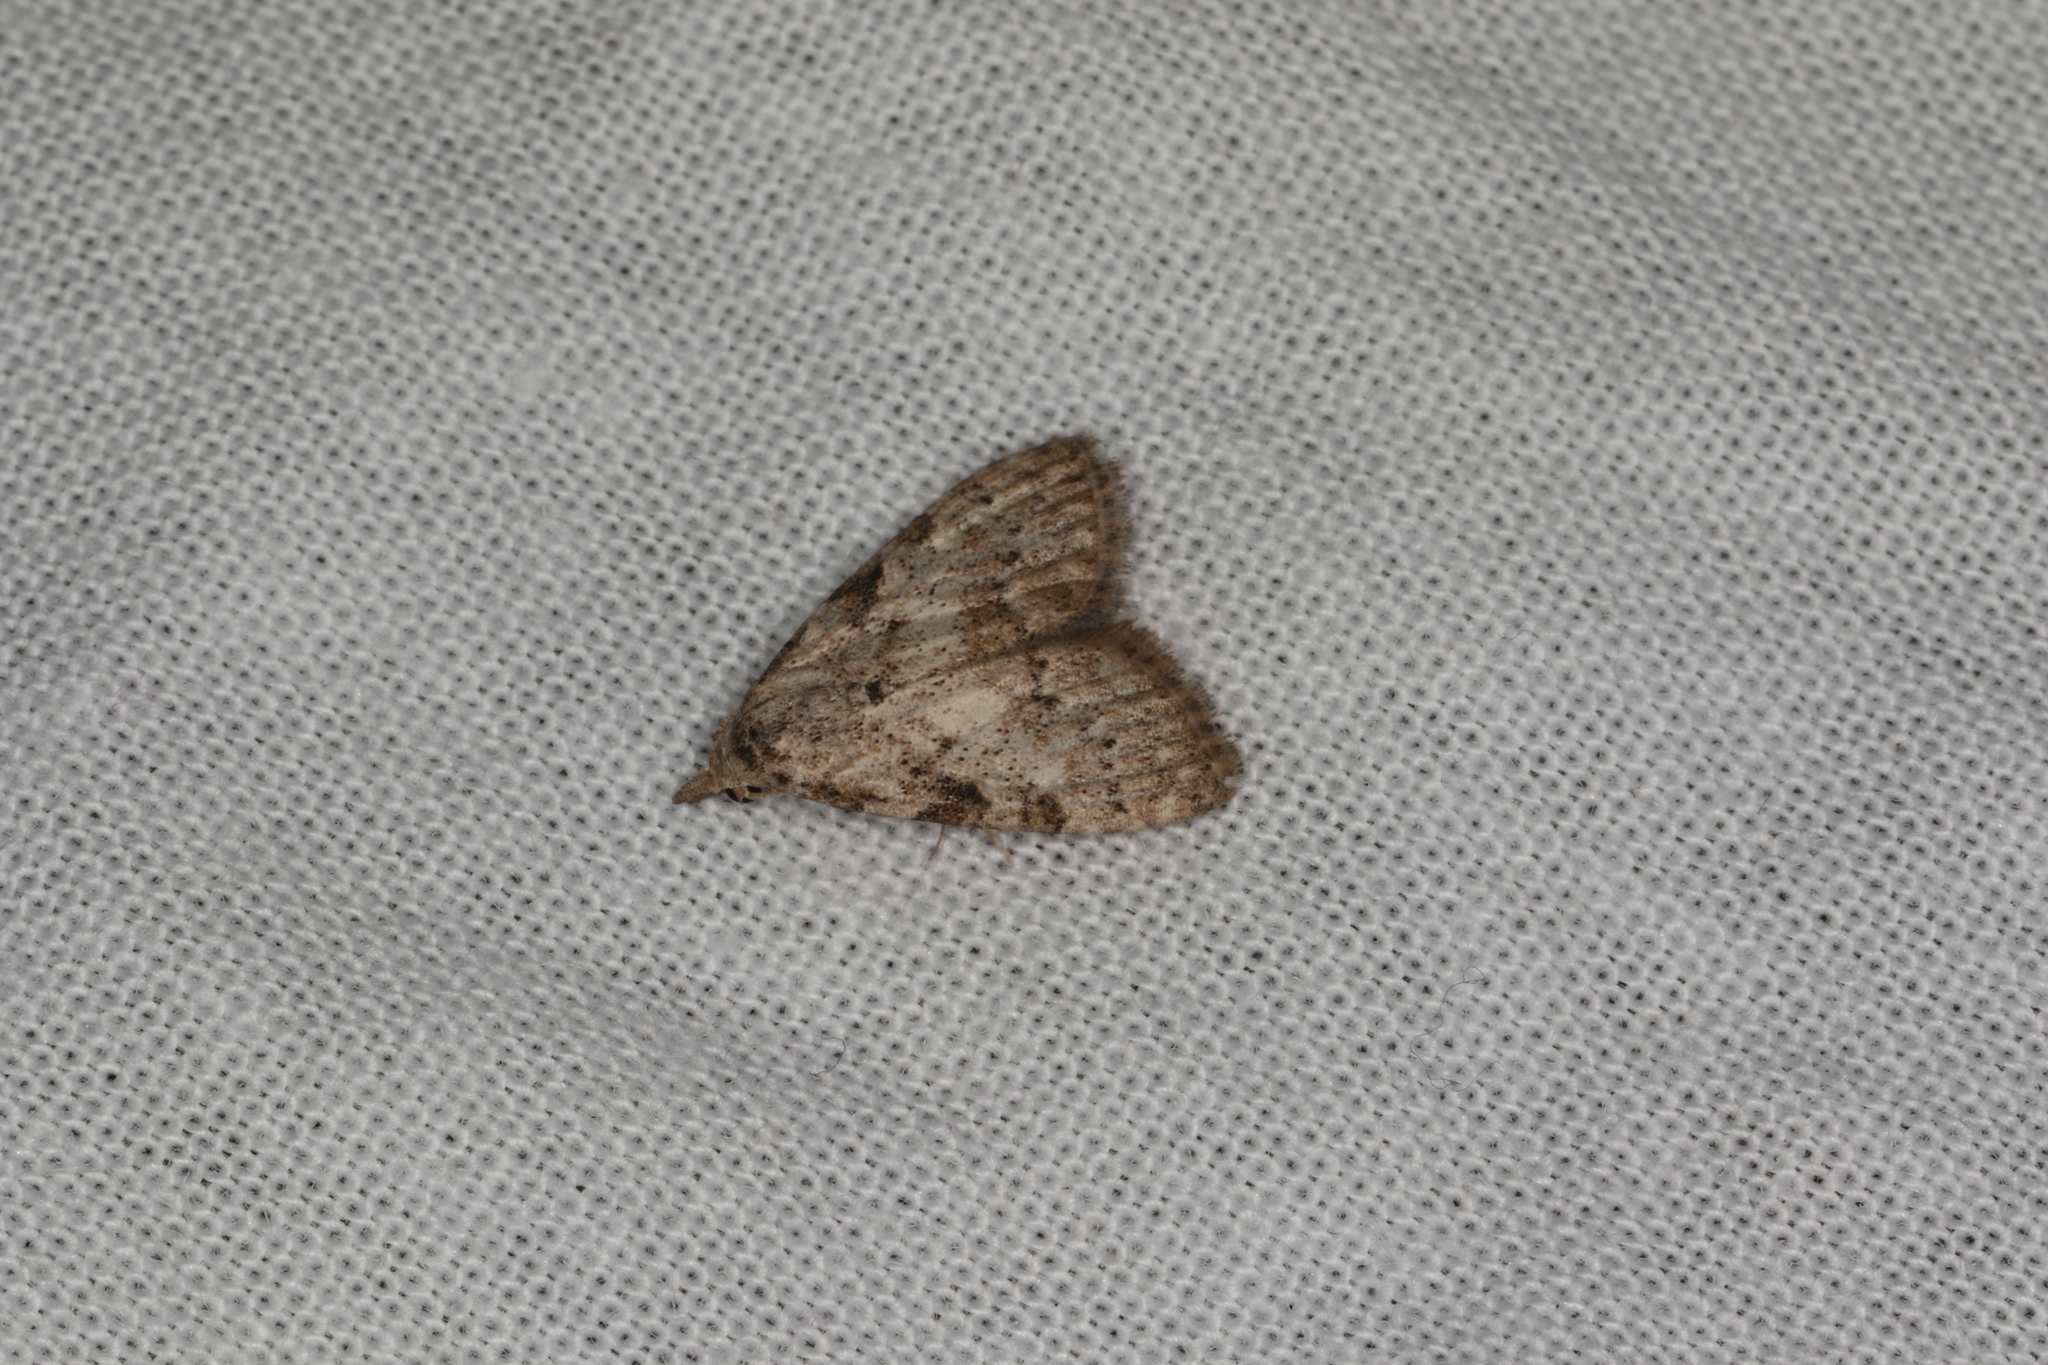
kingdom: Animalia
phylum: Arthropoda
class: Insecta
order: Lepidoptera
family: Nolidae
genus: Nola
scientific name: Nola squalida
